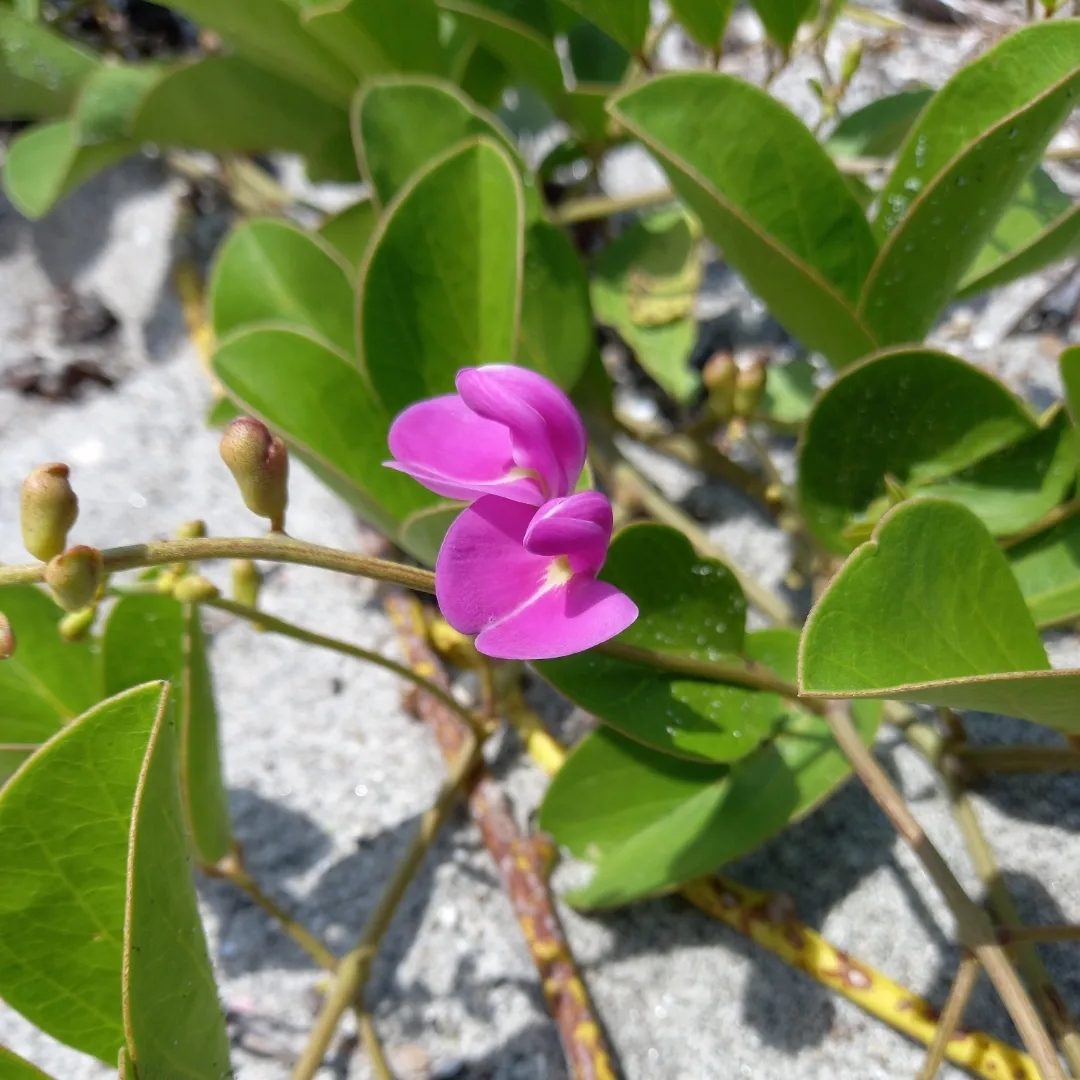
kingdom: Plantae
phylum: Tracheophyta
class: Magnoliopsida
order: Fabales
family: Fabaceae
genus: Canavalia
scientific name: Canavalia rosea
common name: Beach-bean
